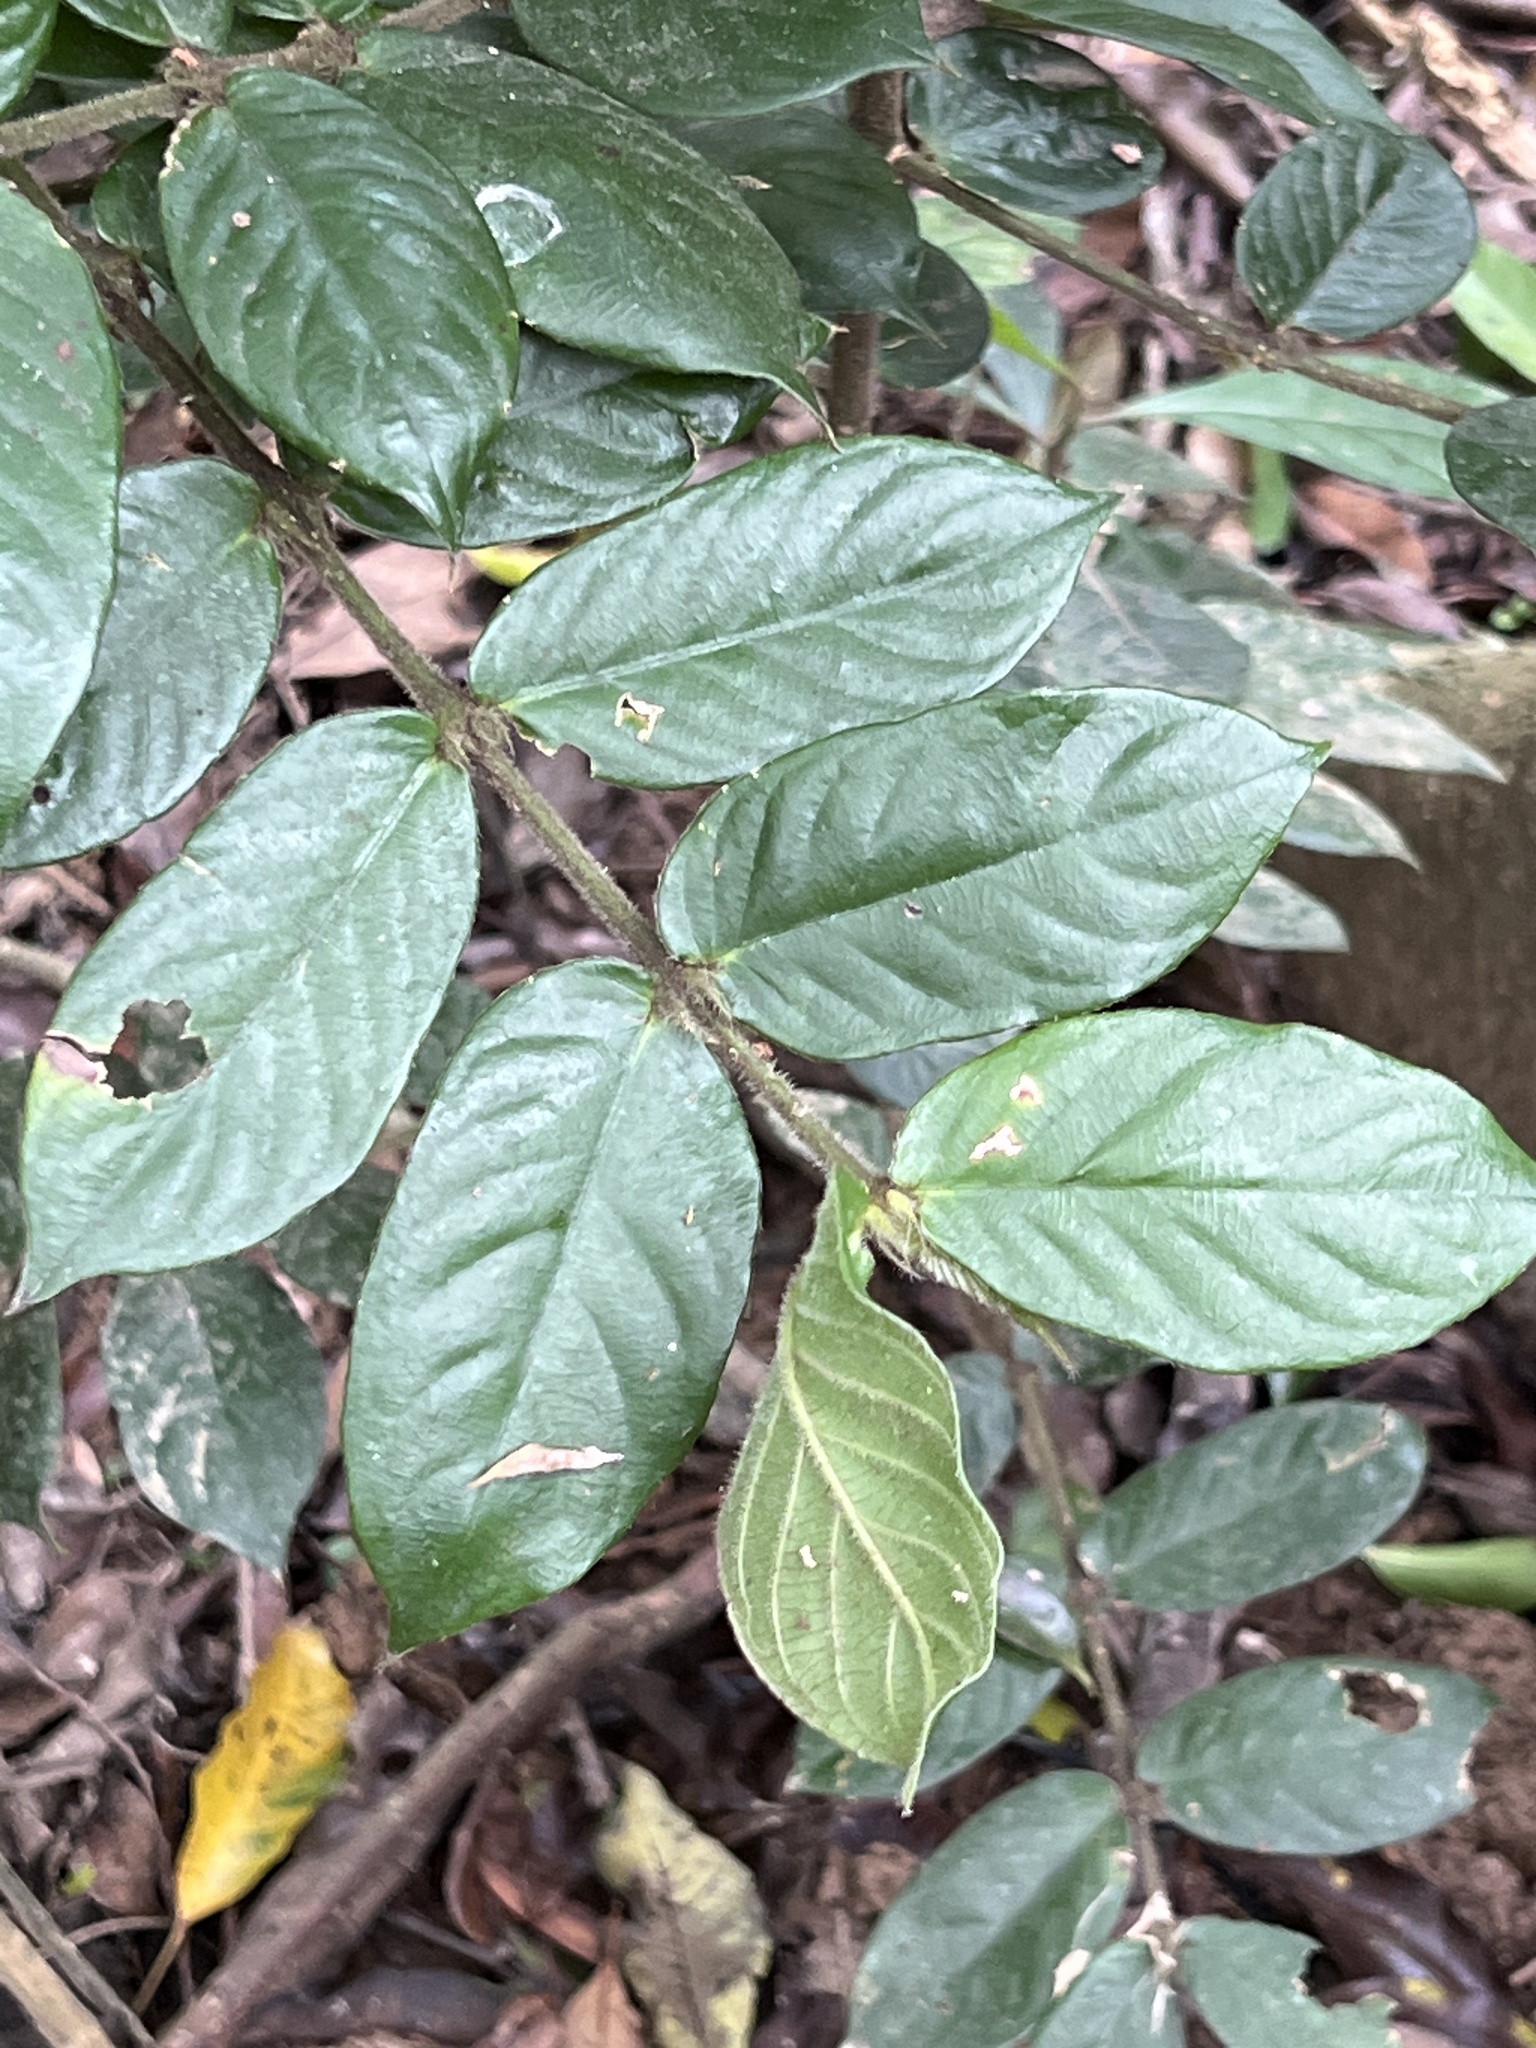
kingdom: Plantae
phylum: Tracheophyta
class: Magnoliopsida
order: Gentianales
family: Rubiaceae
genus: Lasianthus
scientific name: Lasianthus attenuatus
